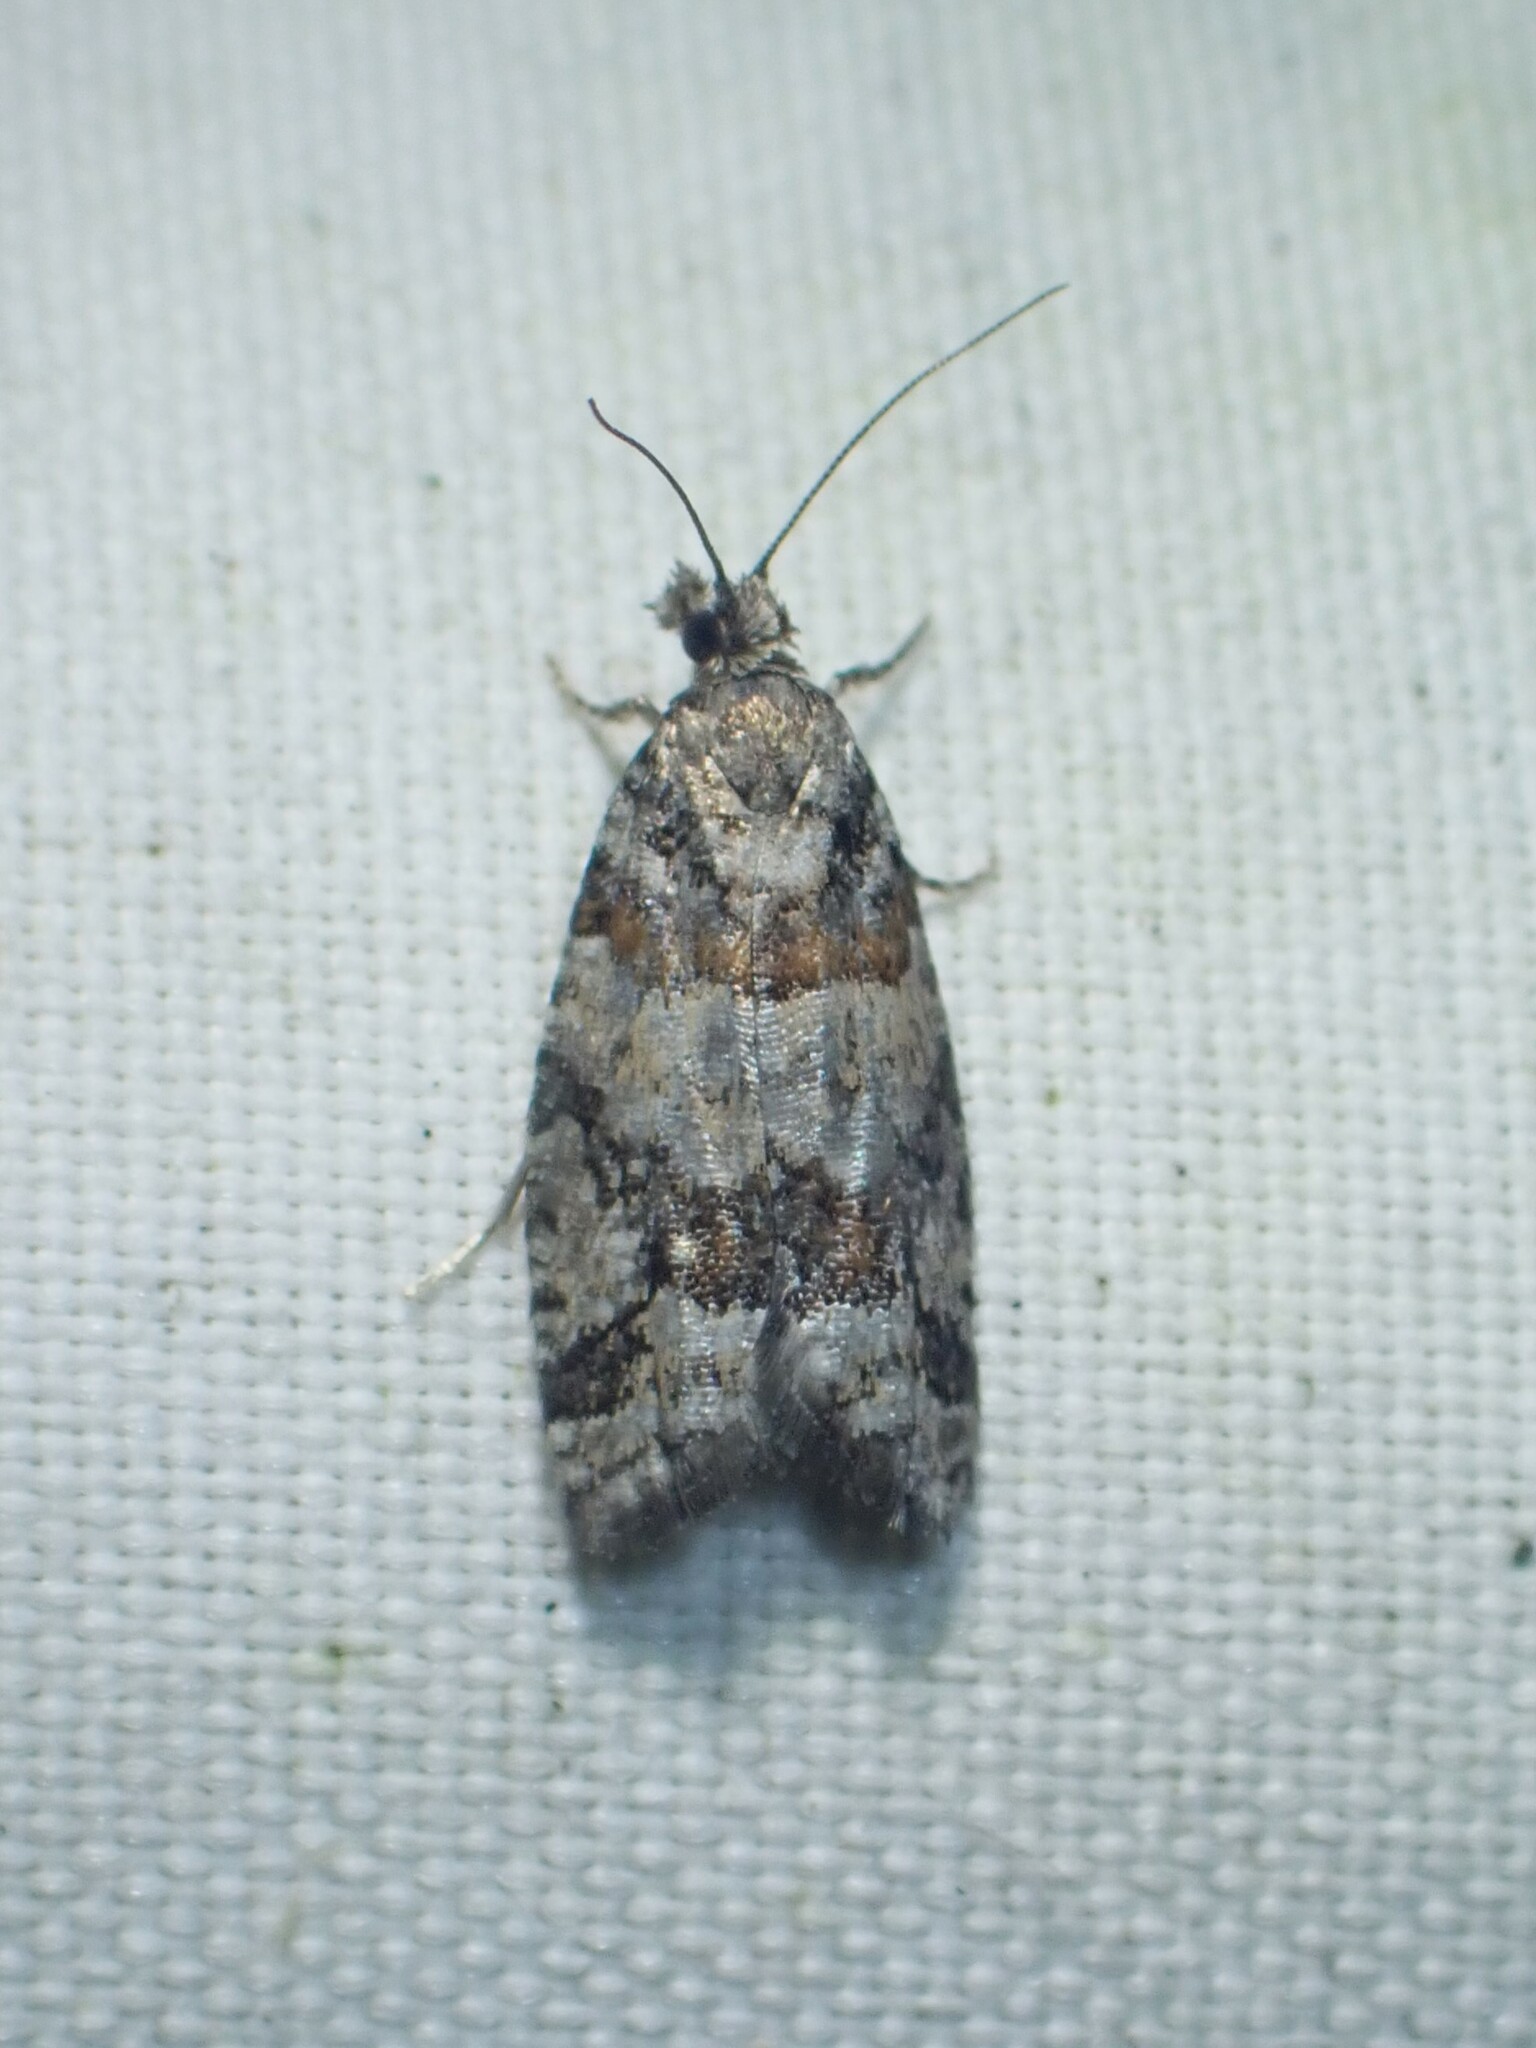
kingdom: Animalia
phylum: Arthropoda
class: Insecta
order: Lepidoptera
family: Tortricidae
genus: Epinotia
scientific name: Epinotia radicana
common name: Red-striped needleworm moth
